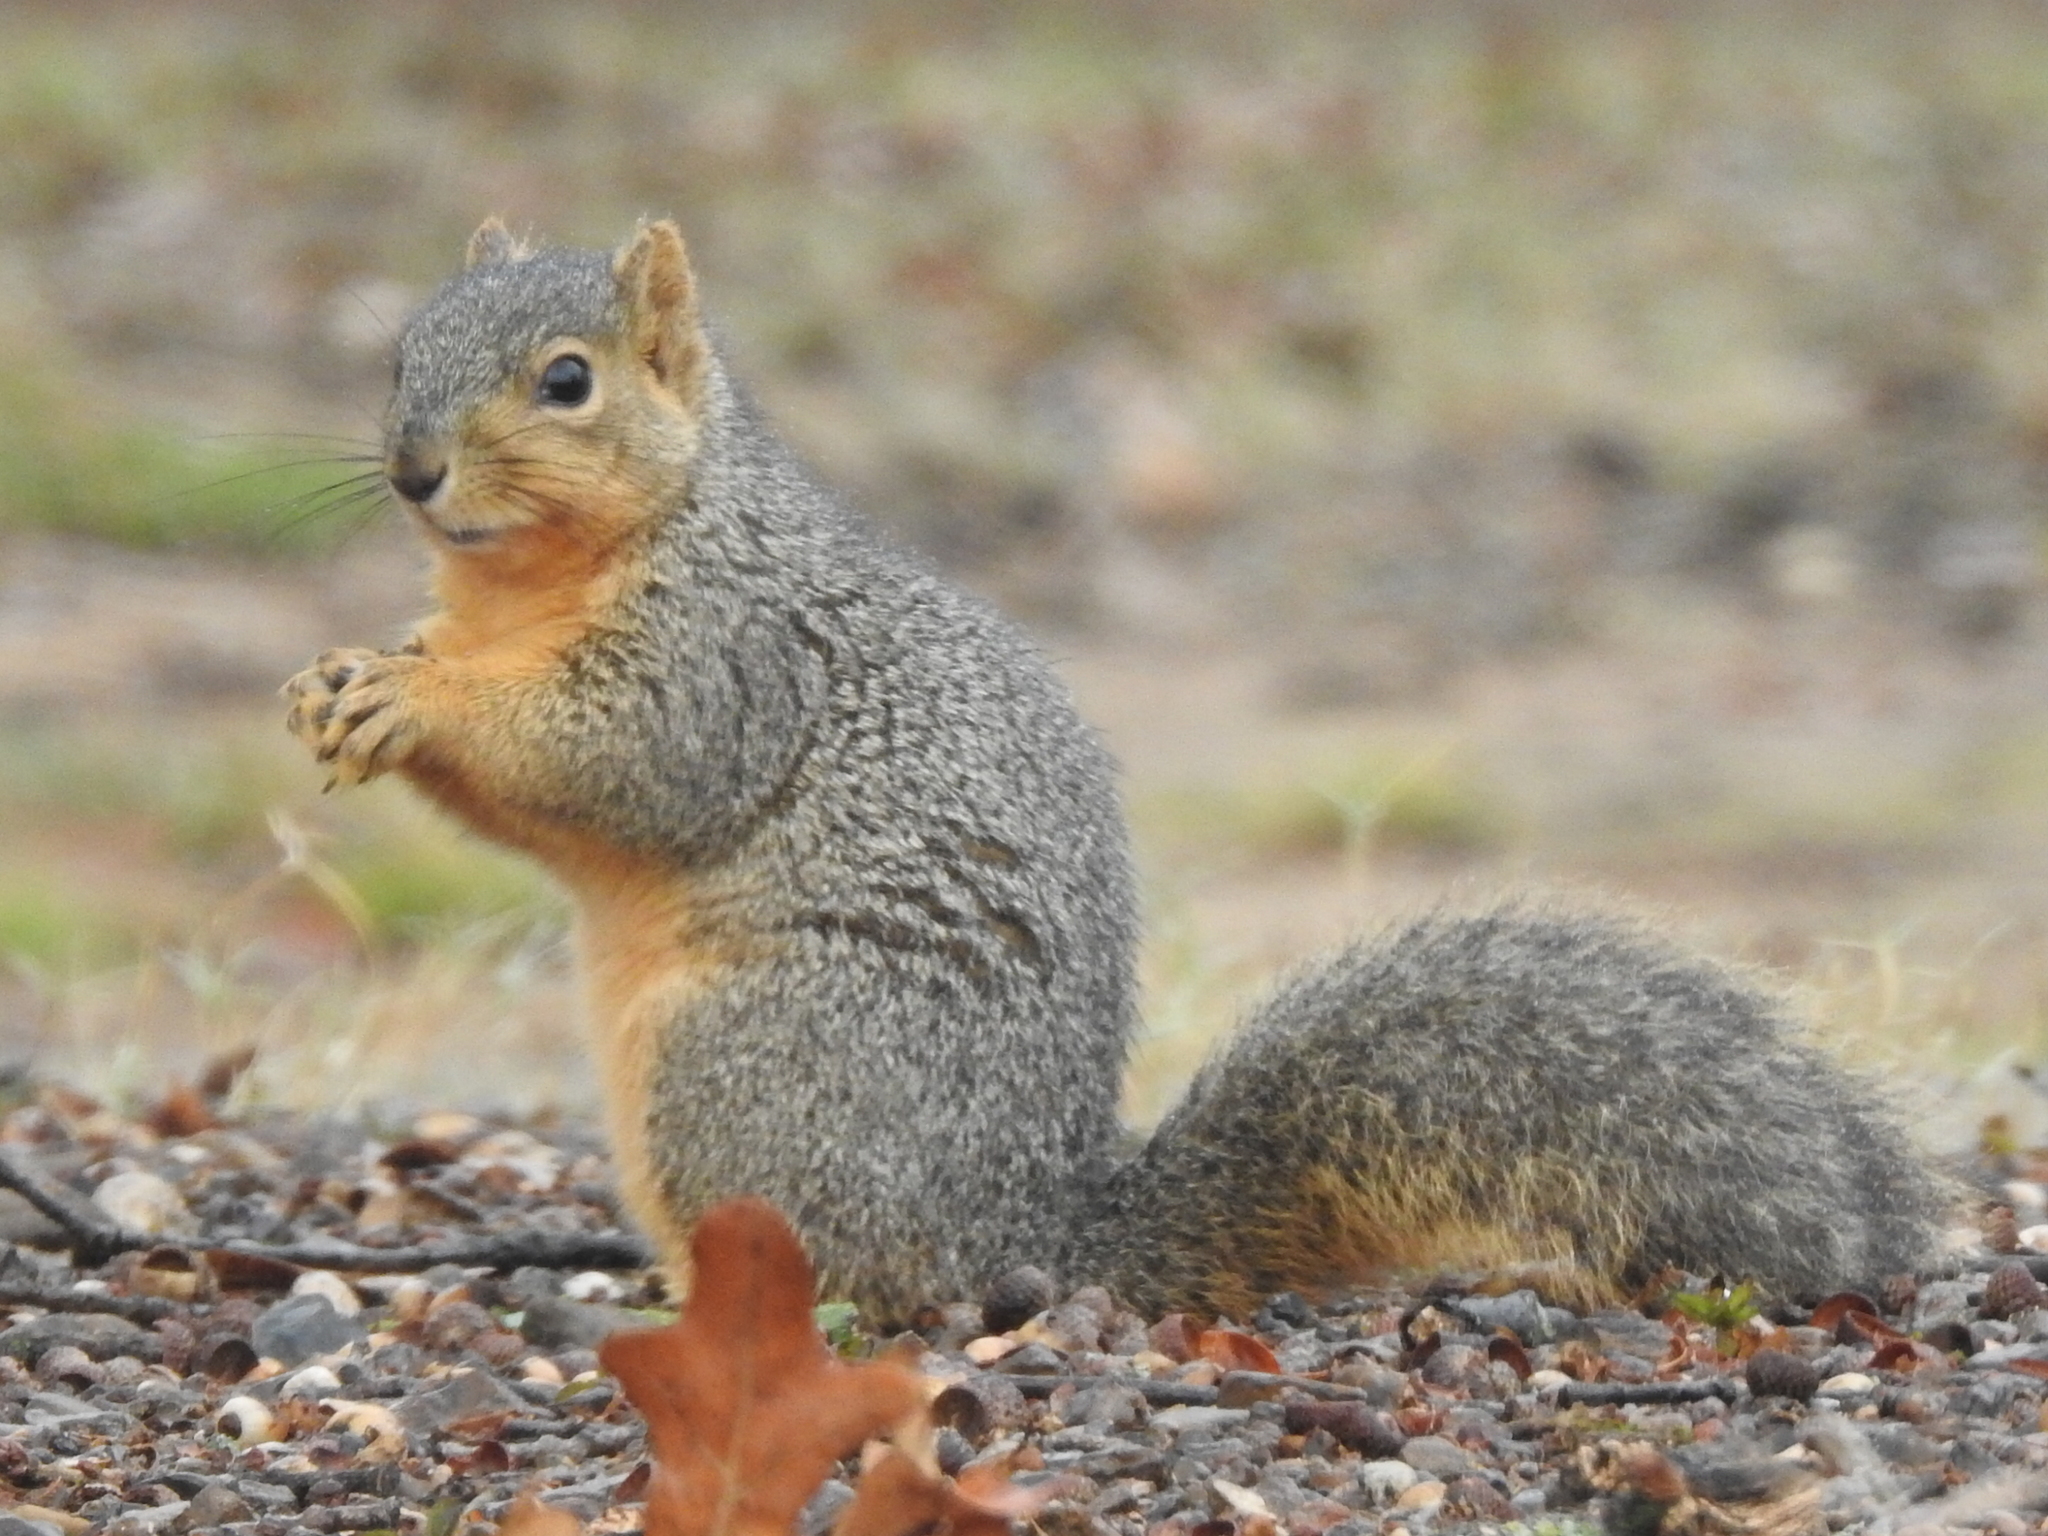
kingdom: Animalia
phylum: Chordata
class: Mammalia
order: Rodentia
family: Sciuridae
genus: Sciurus
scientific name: Sciurus niger
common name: Fox squirrel
